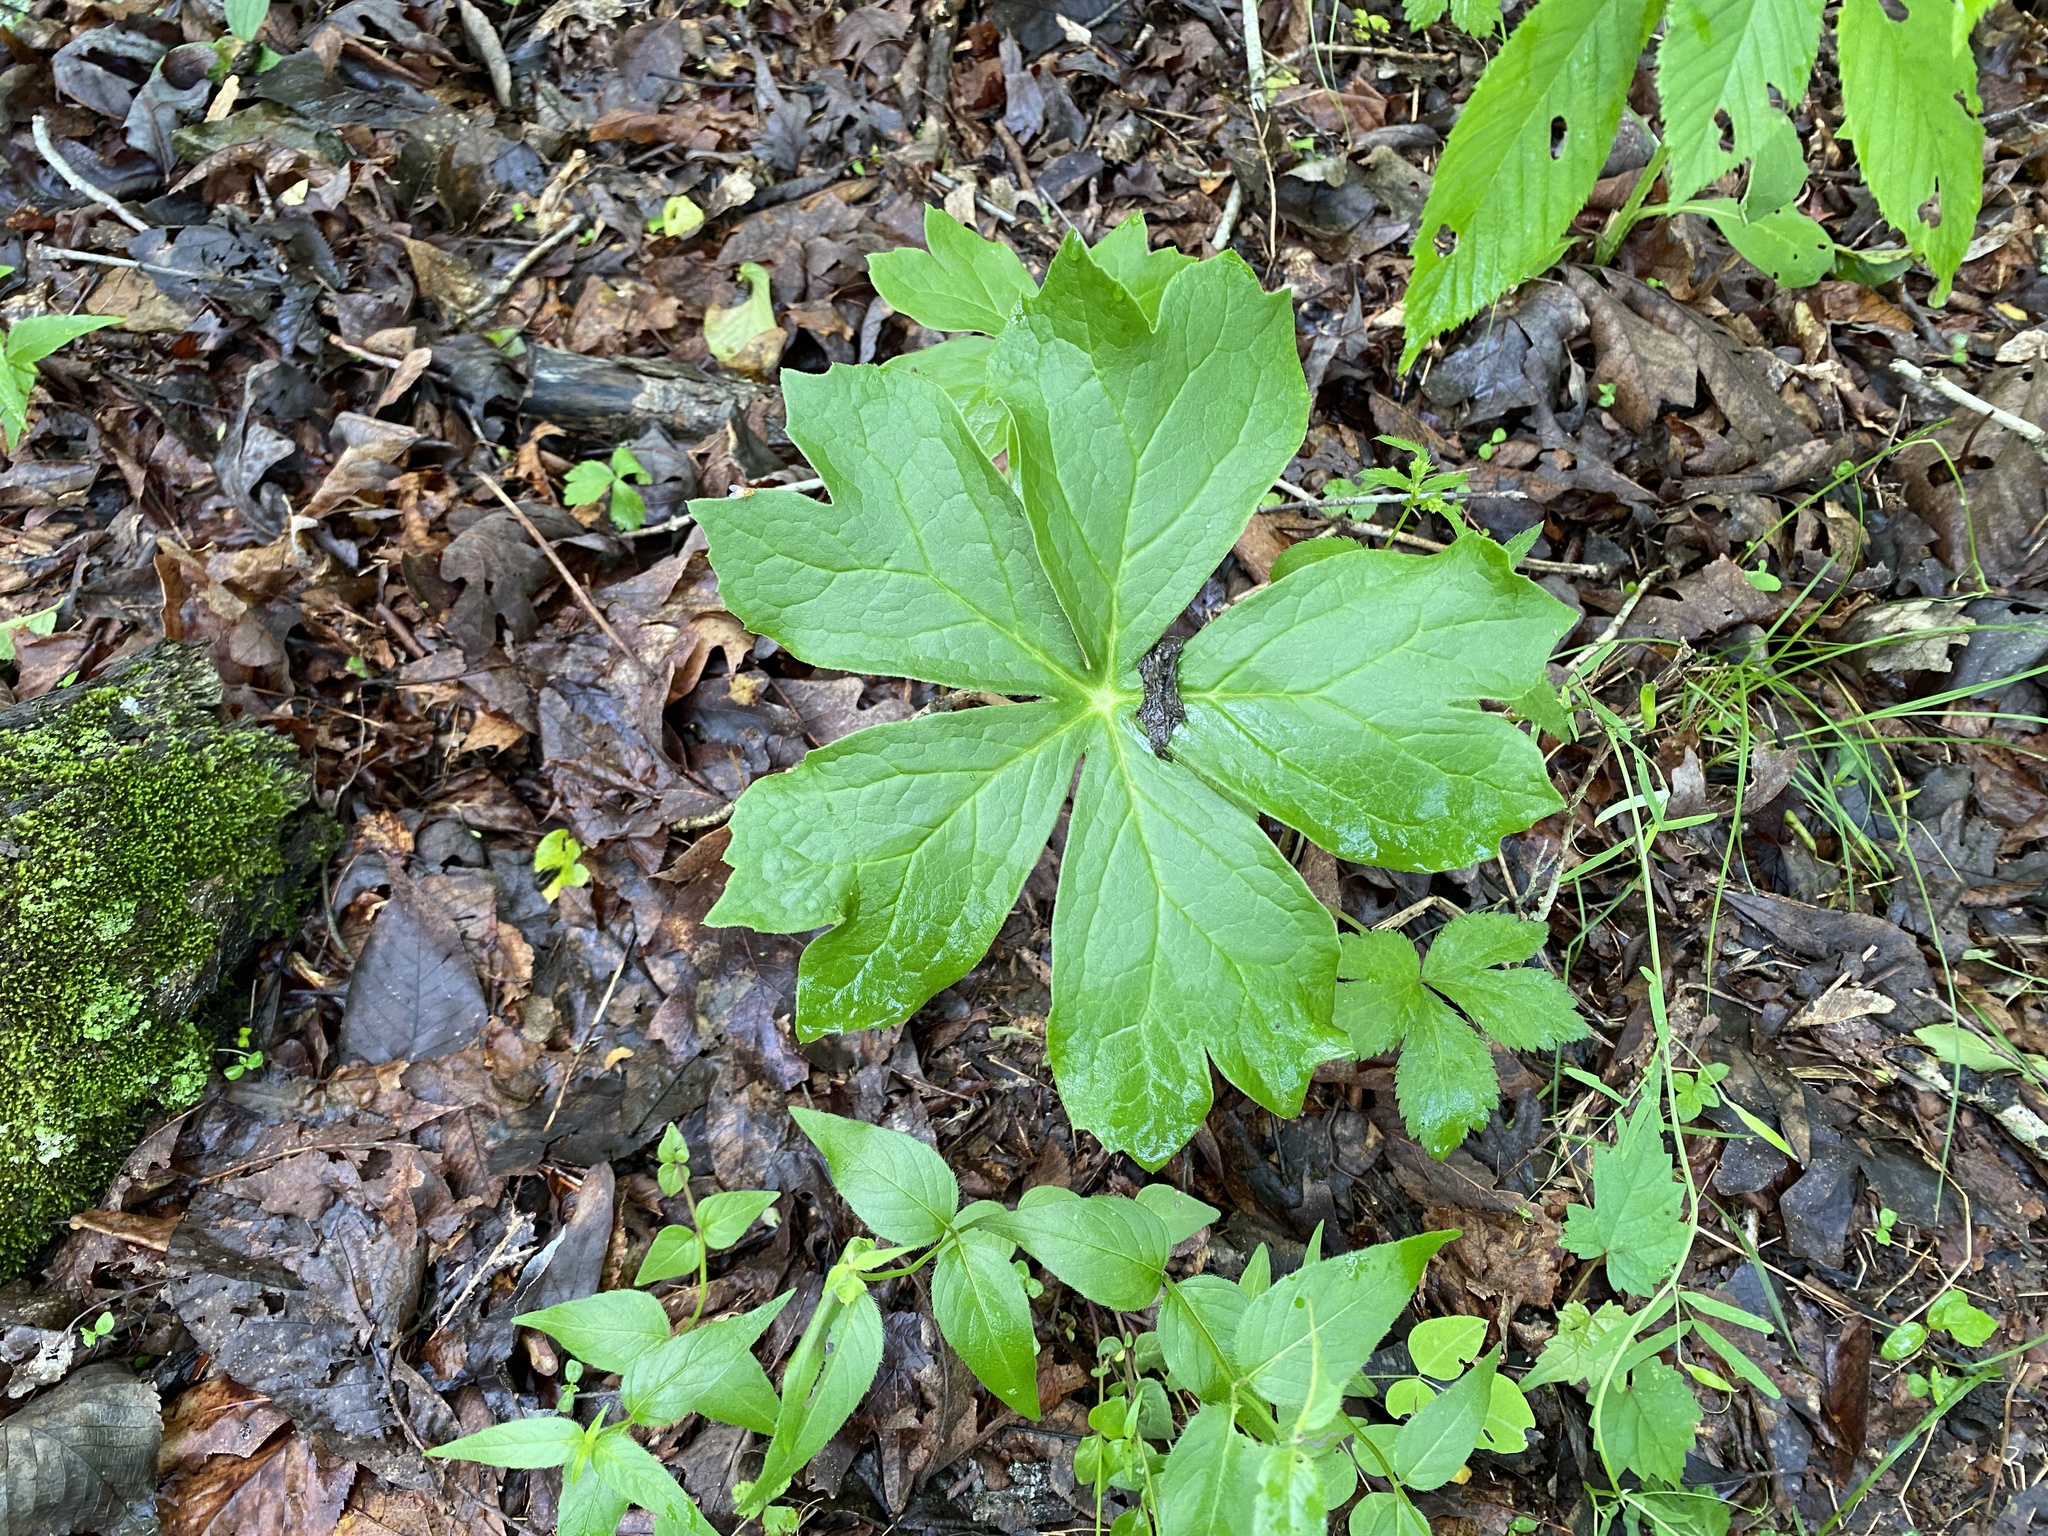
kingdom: Plantae
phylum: Tracheophyta
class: Magnoliopsida
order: Ranunculales
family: Berberidaceae
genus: Podophyllum
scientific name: Podophyllum peltatum
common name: Wild mandrake
